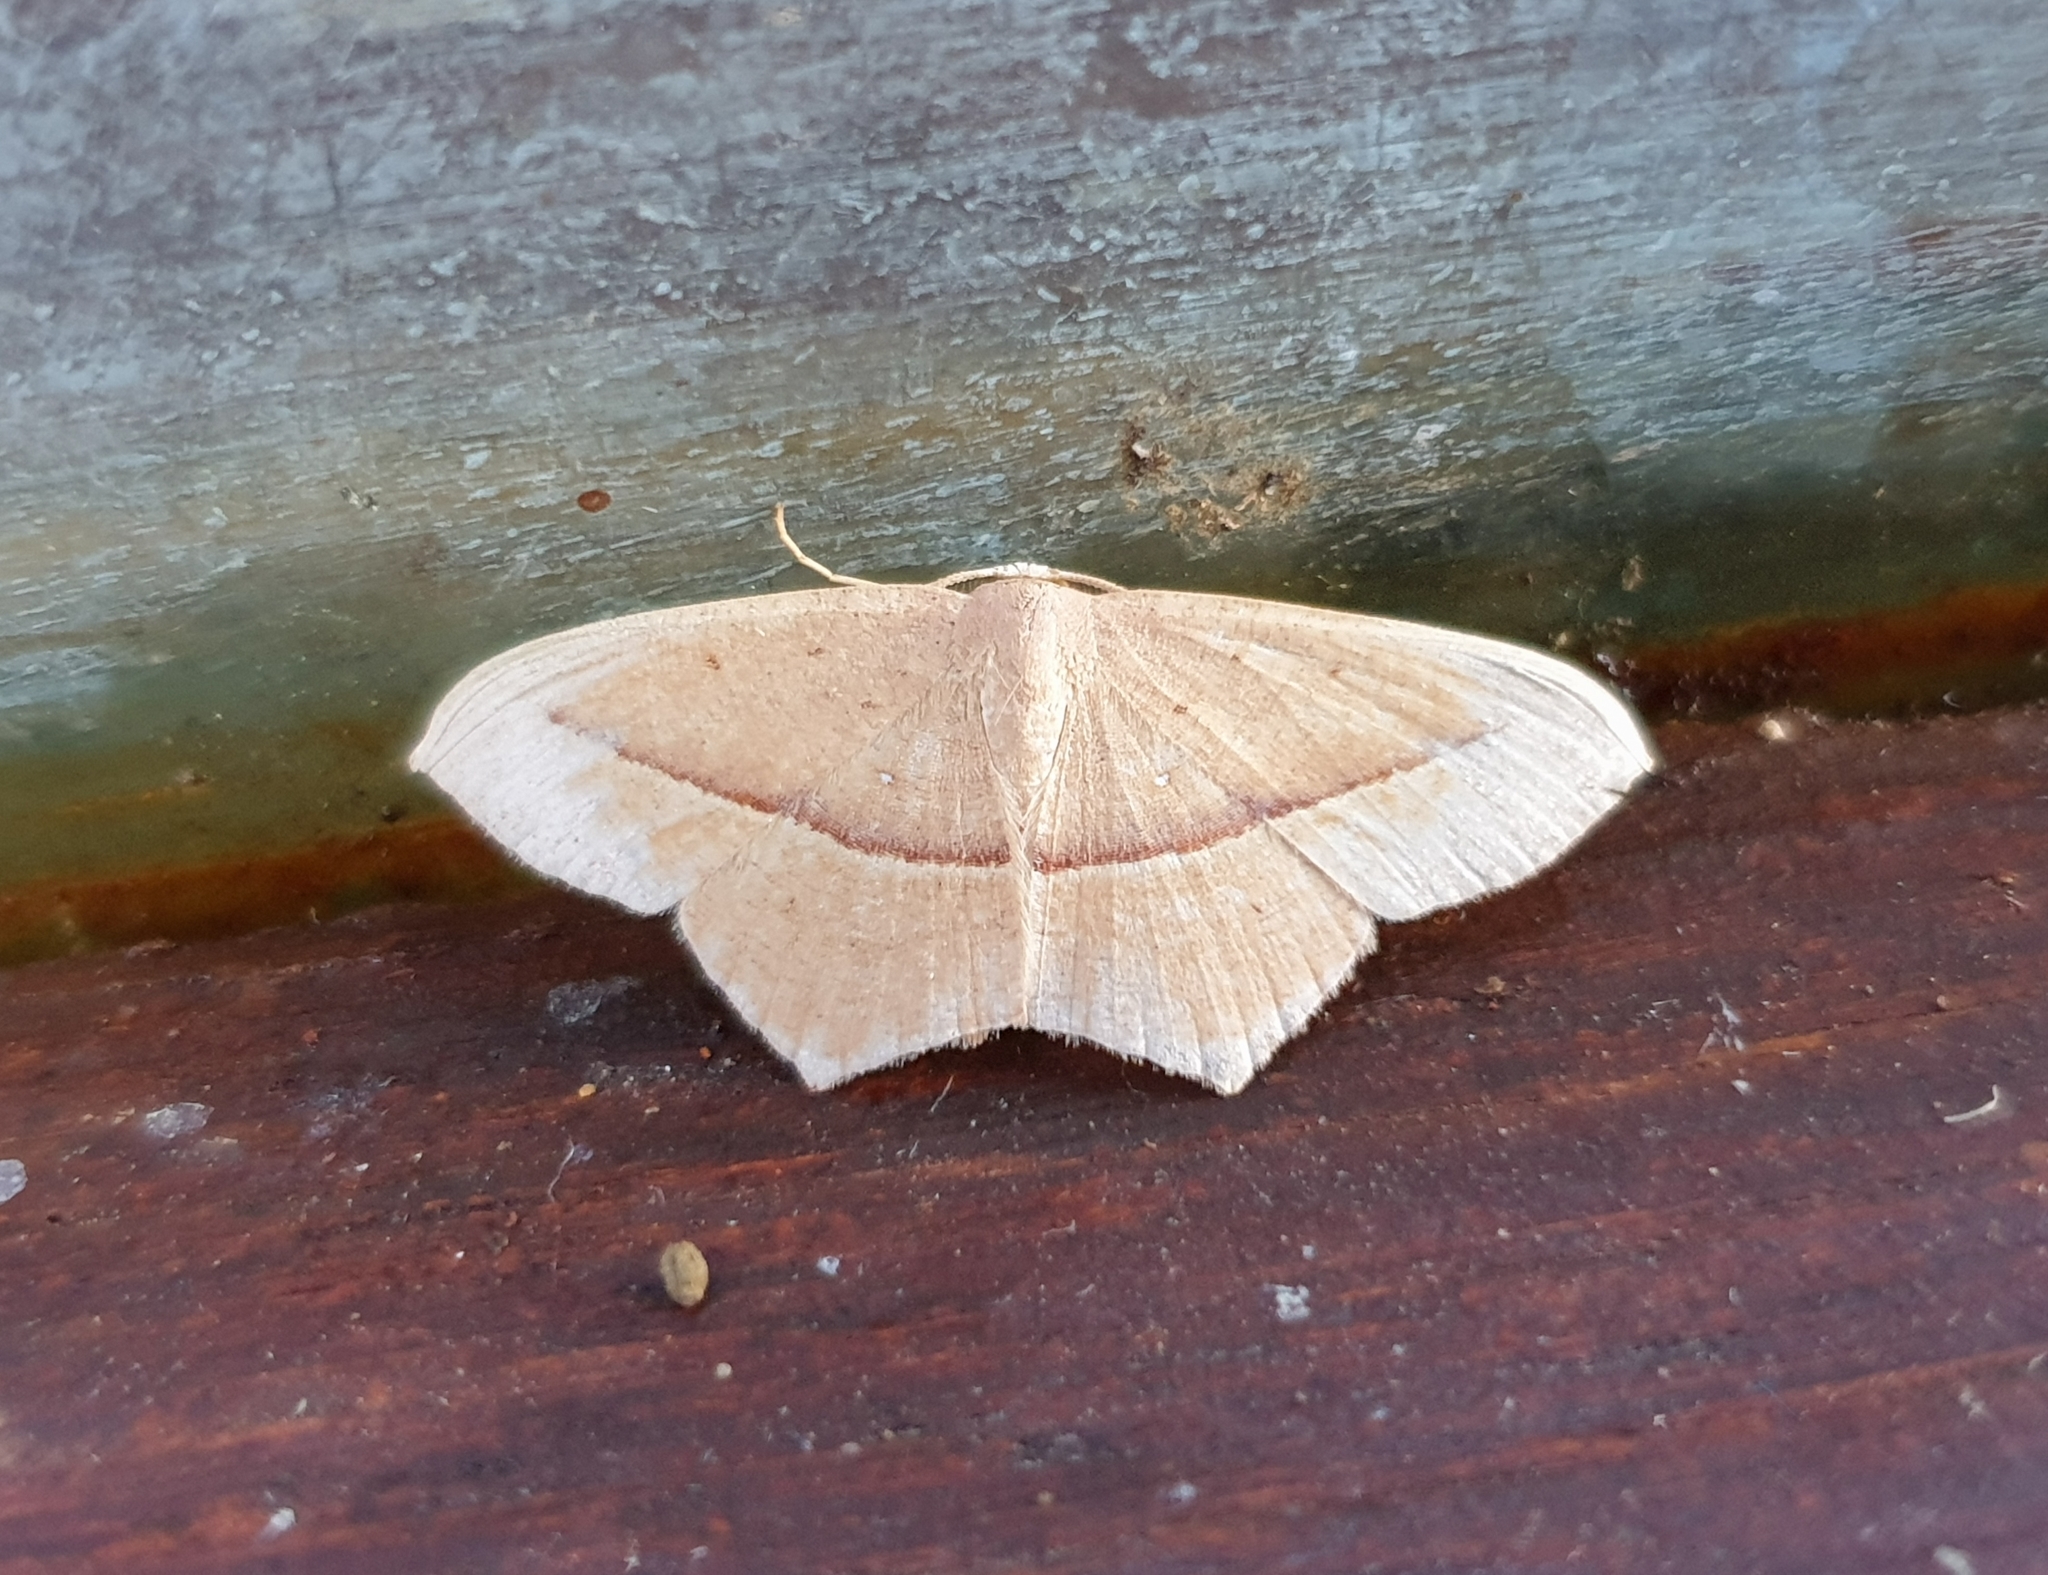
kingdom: Animalia
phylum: Arthropoda
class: Insecta
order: Lepidoptera
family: Geometridae
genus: Traminda
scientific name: Traminda mundissima
